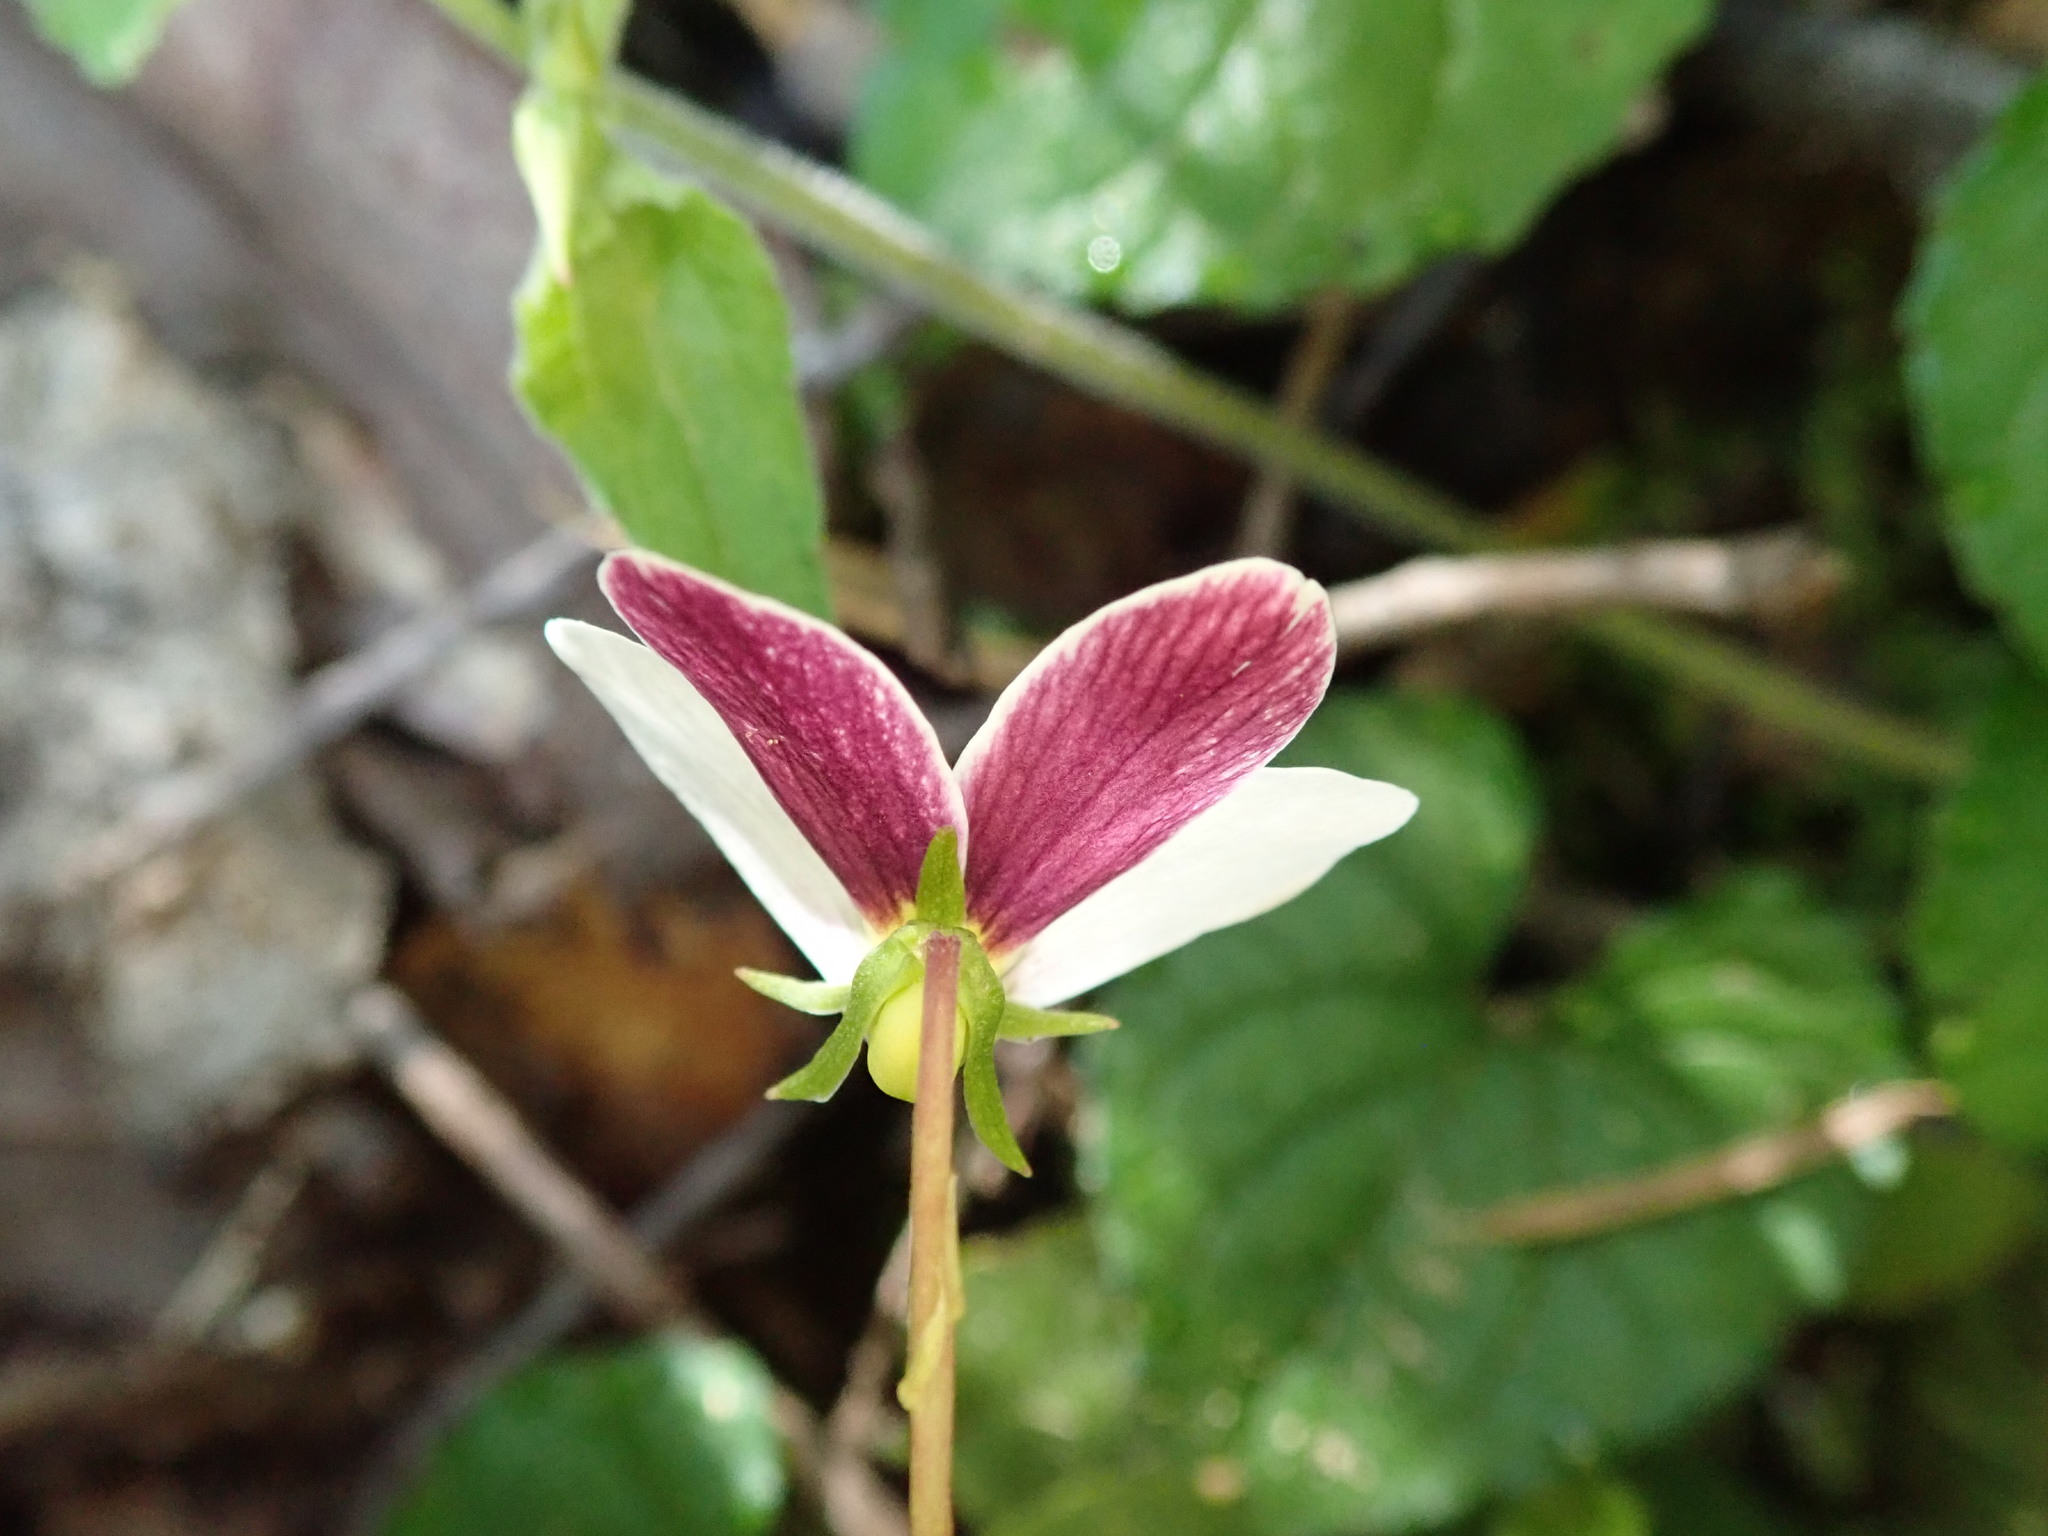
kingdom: Plantae
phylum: Tracheophyta
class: Magnoliopsida
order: Malpighiales
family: Violaceae
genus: Viola
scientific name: Viola ocellata
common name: Western heart's ease
